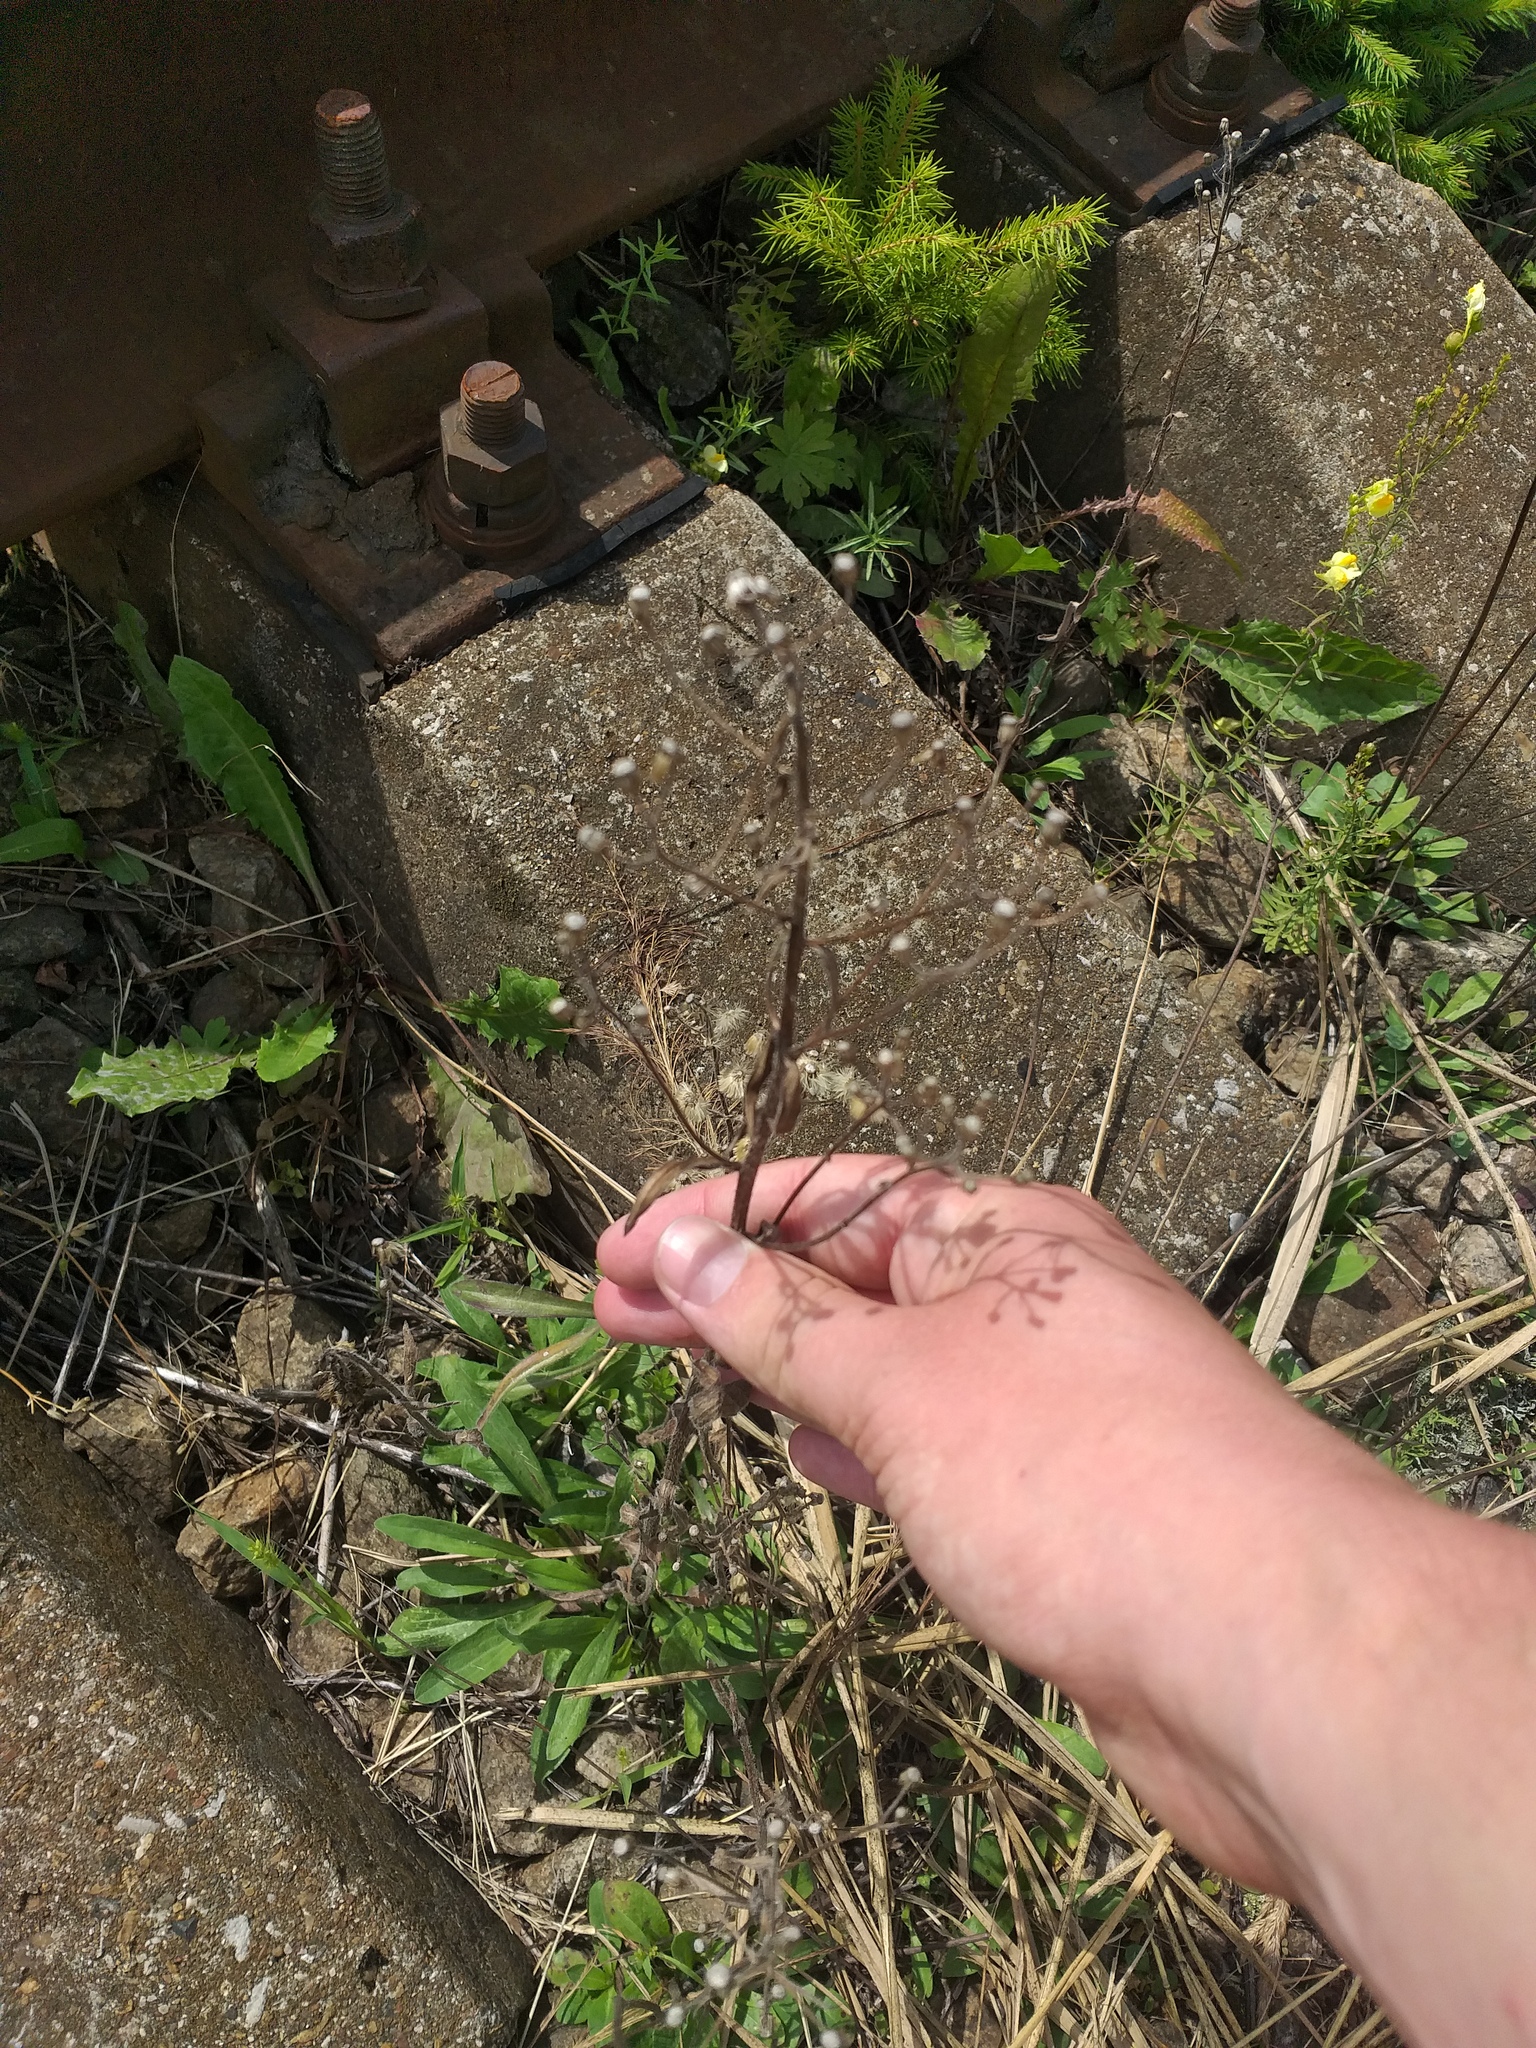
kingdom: Plantae
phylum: Tracheophyta
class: Magnoliopsida
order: Asterales
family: Asteraceae
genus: Erigeron
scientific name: Erigeron acris
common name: Blue fleabane
